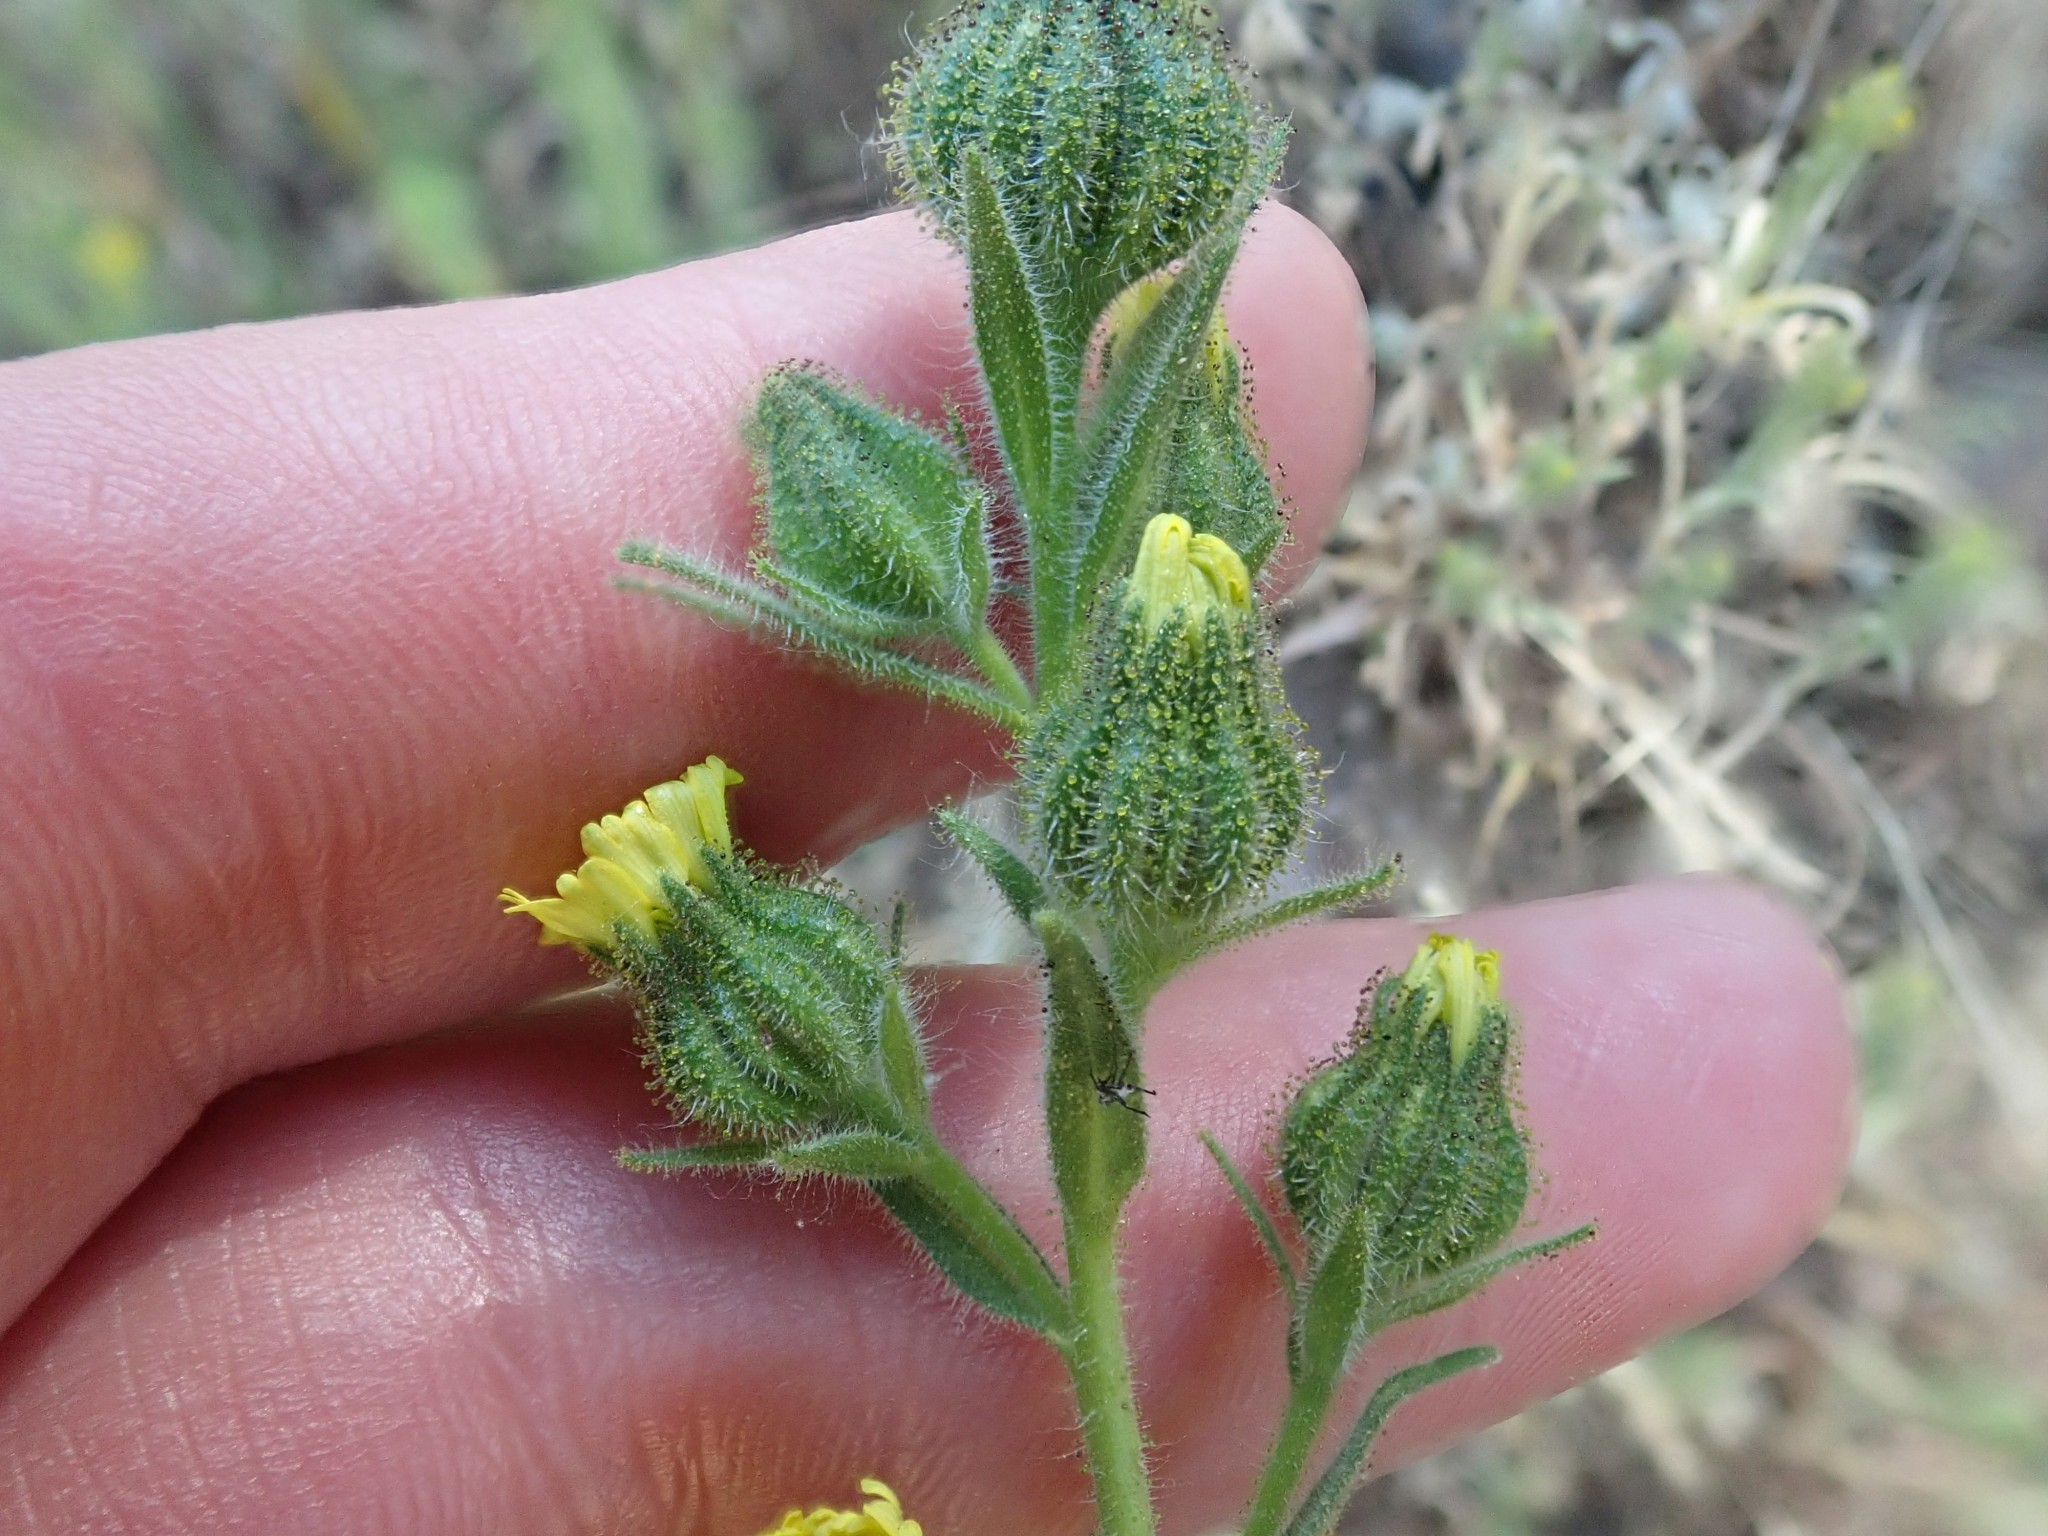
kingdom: Plantae
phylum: Tracheophyta
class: Magnoliopsida
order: Asterales
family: Asteraceae
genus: Madia
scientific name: Madia gracilis
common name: Grassy tarweed
